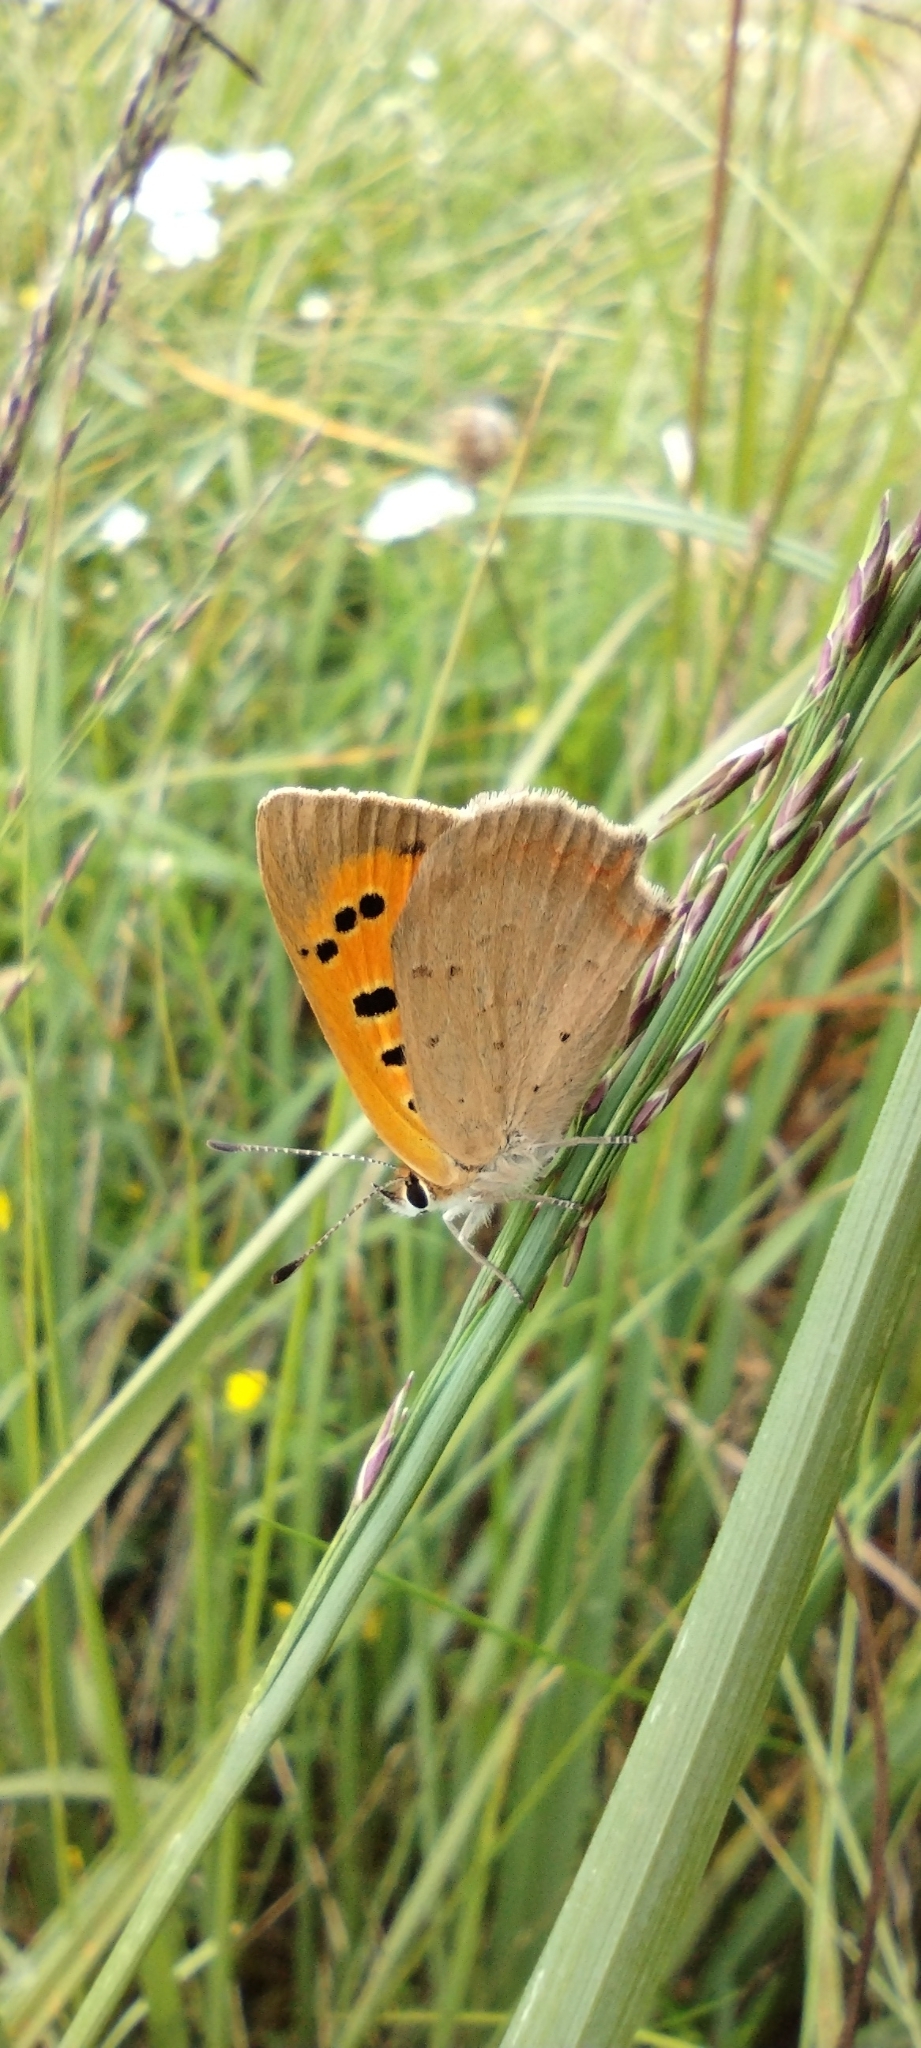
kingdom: Animalia
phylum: Arthropoda
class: Insecta
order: Lepidoptera
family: Lycaenidae
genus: Lycaena
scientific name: Lycaena phlaeas
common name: Small copper
